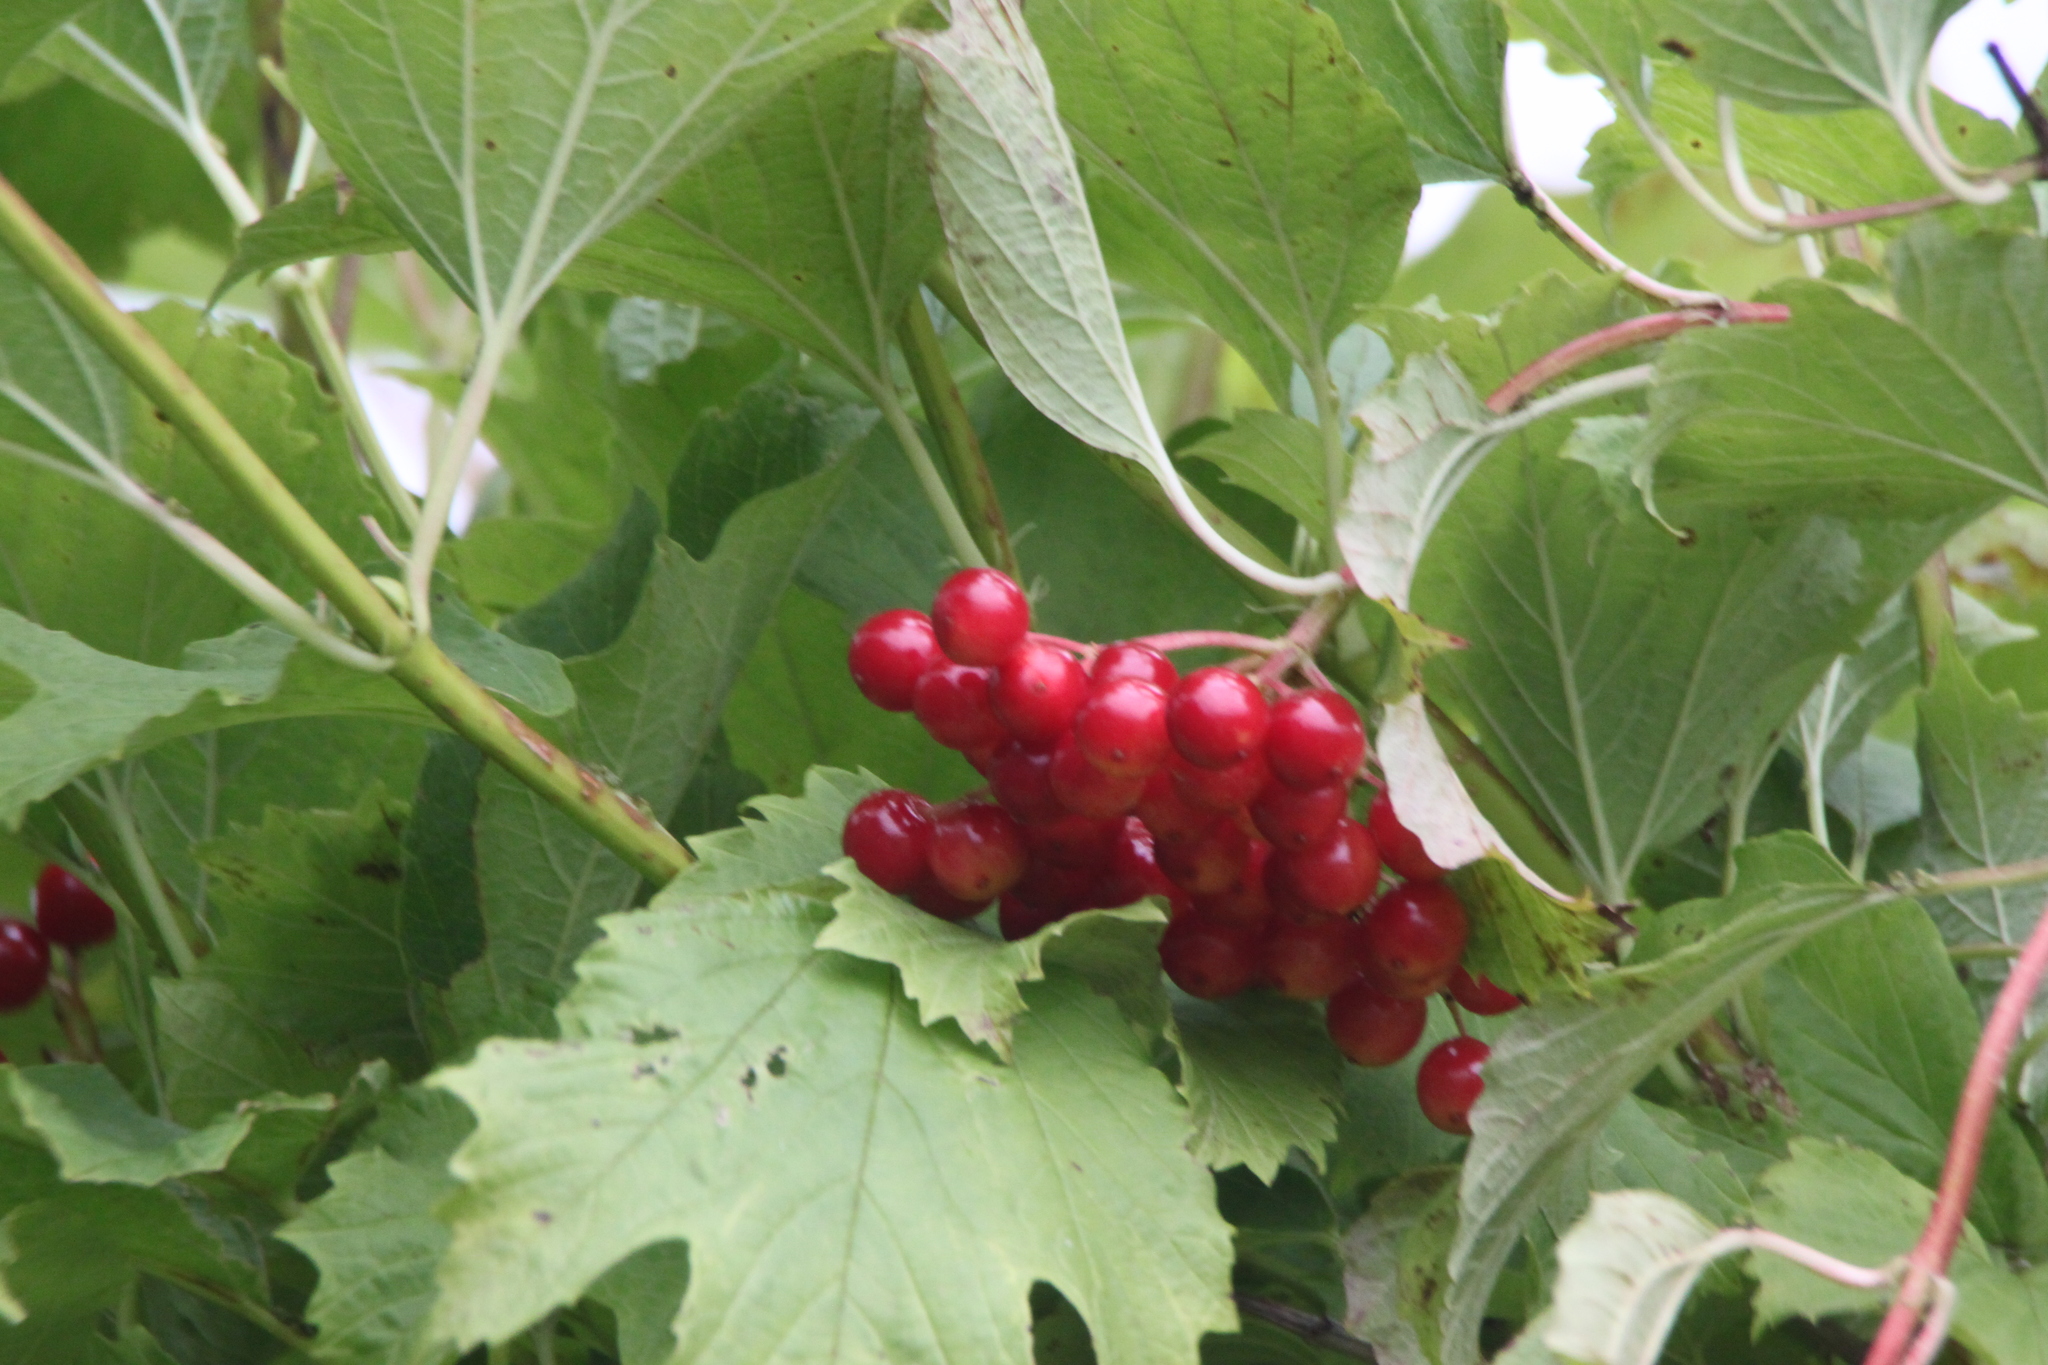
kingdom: Plantae
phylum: Tracheophyta
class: Magnoliopsida
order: Dipsacales
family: Viburnaceae
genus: Viburnum
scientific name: Viburnum opulus
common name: Guelder-rose
